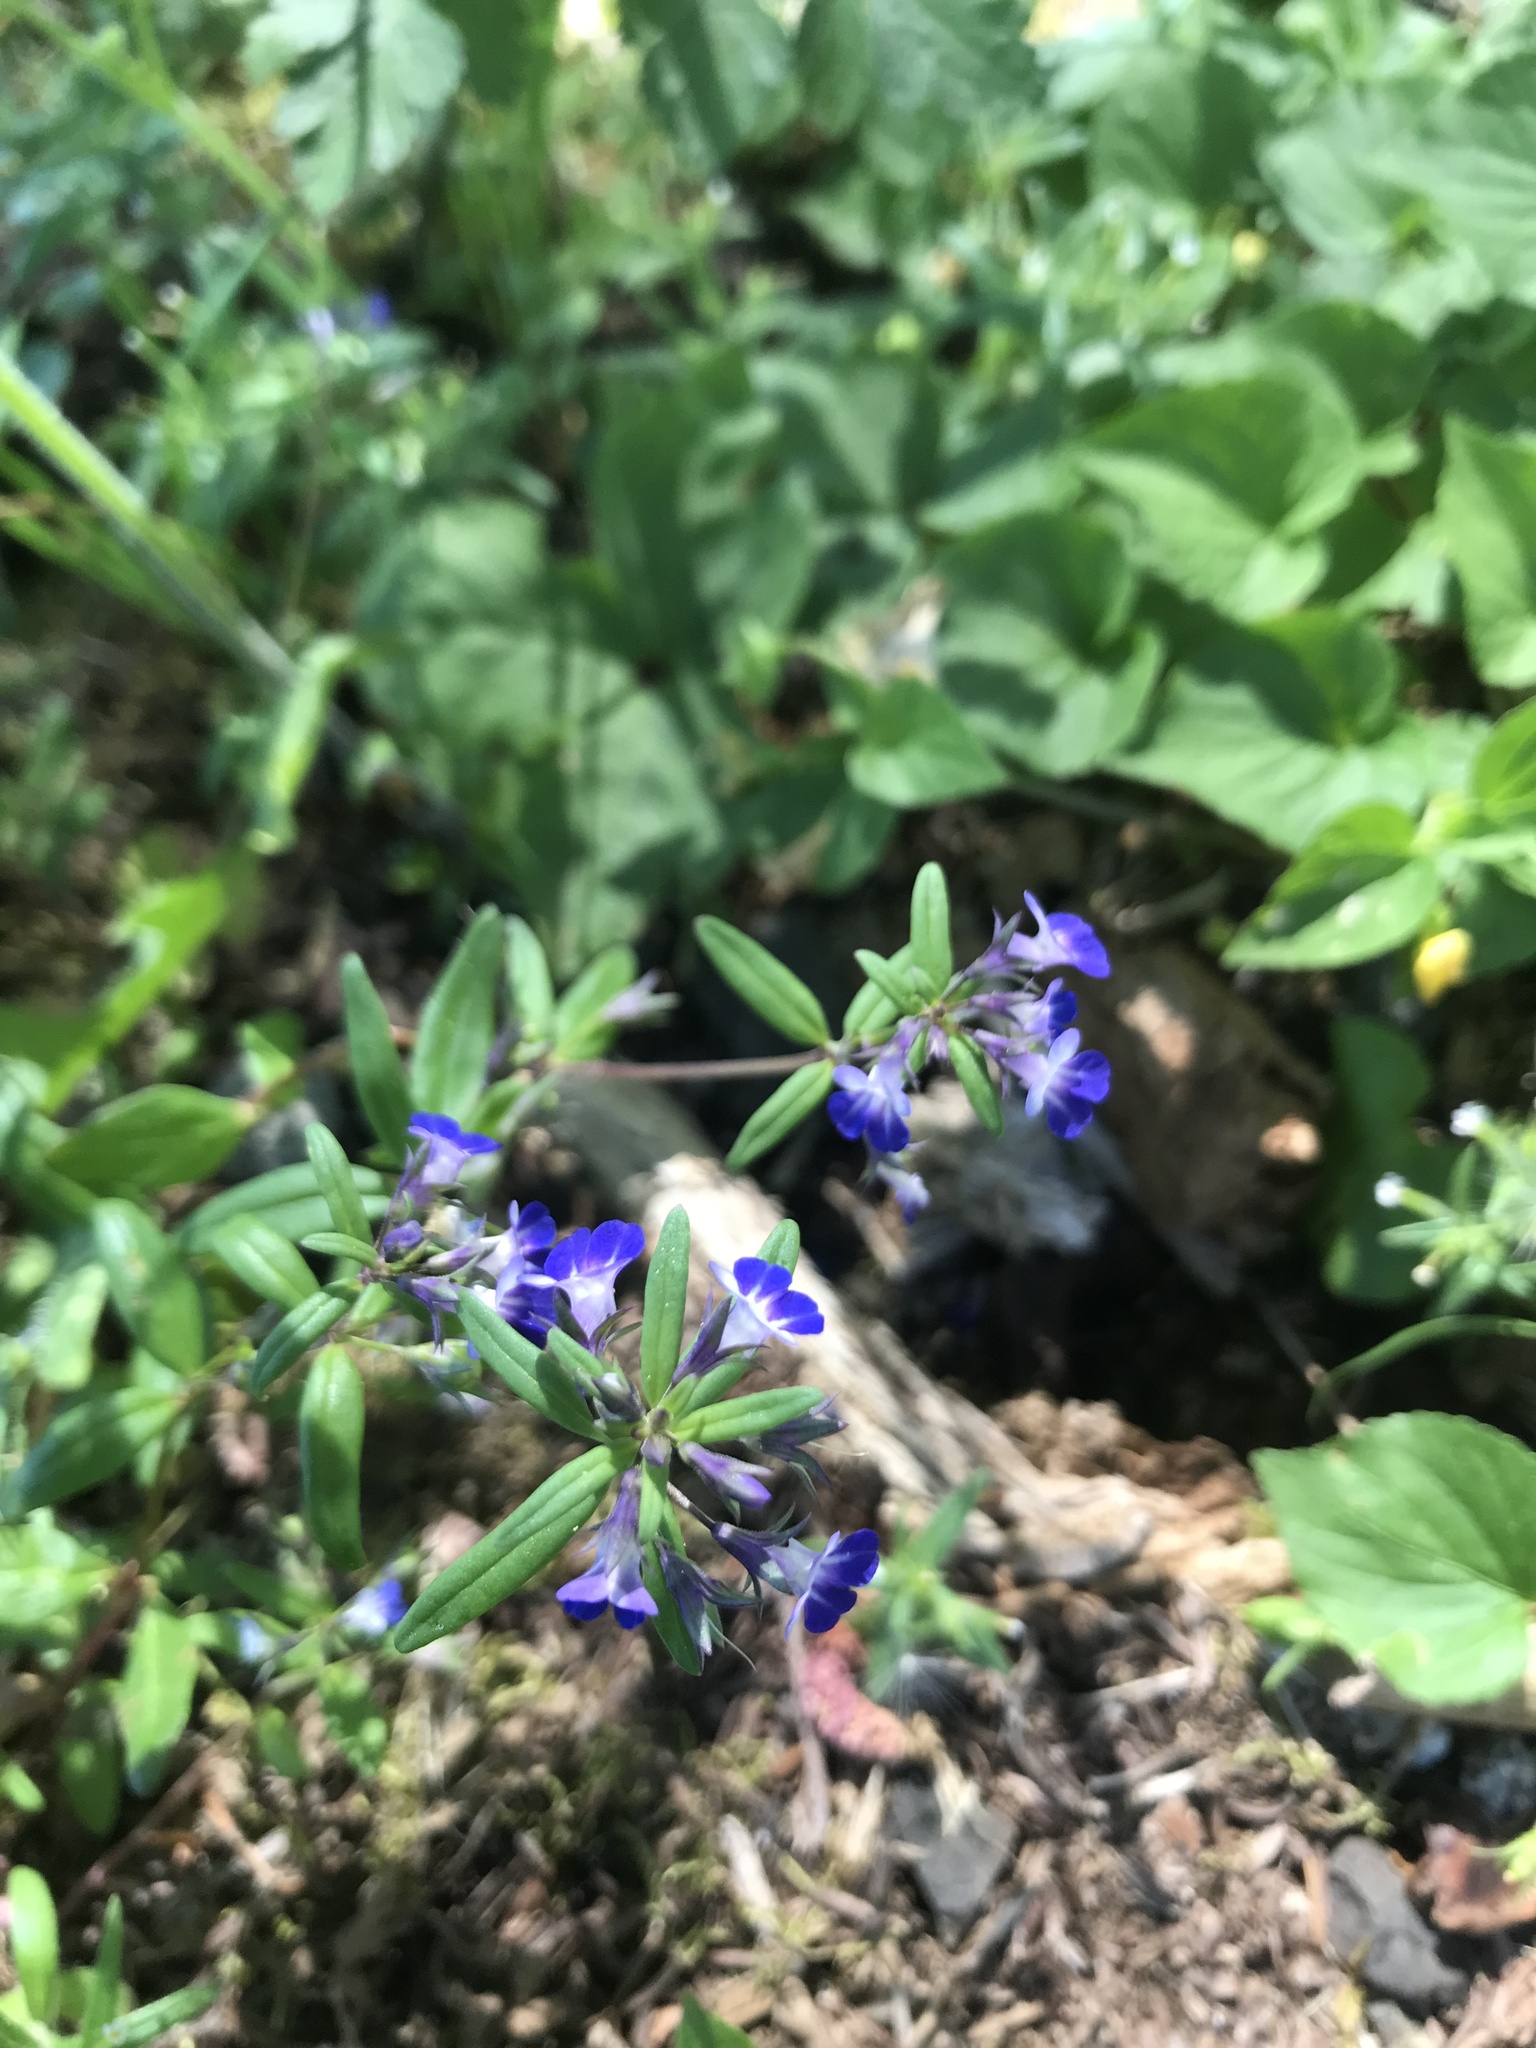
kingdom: Plantae
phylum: Tracheophyta
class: Magnoliopsida
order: Lamiales
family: Plantaginaceae
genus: Collinsia
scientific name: Collinsia grandiflora
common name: Large-flower blue-eyed-mary
